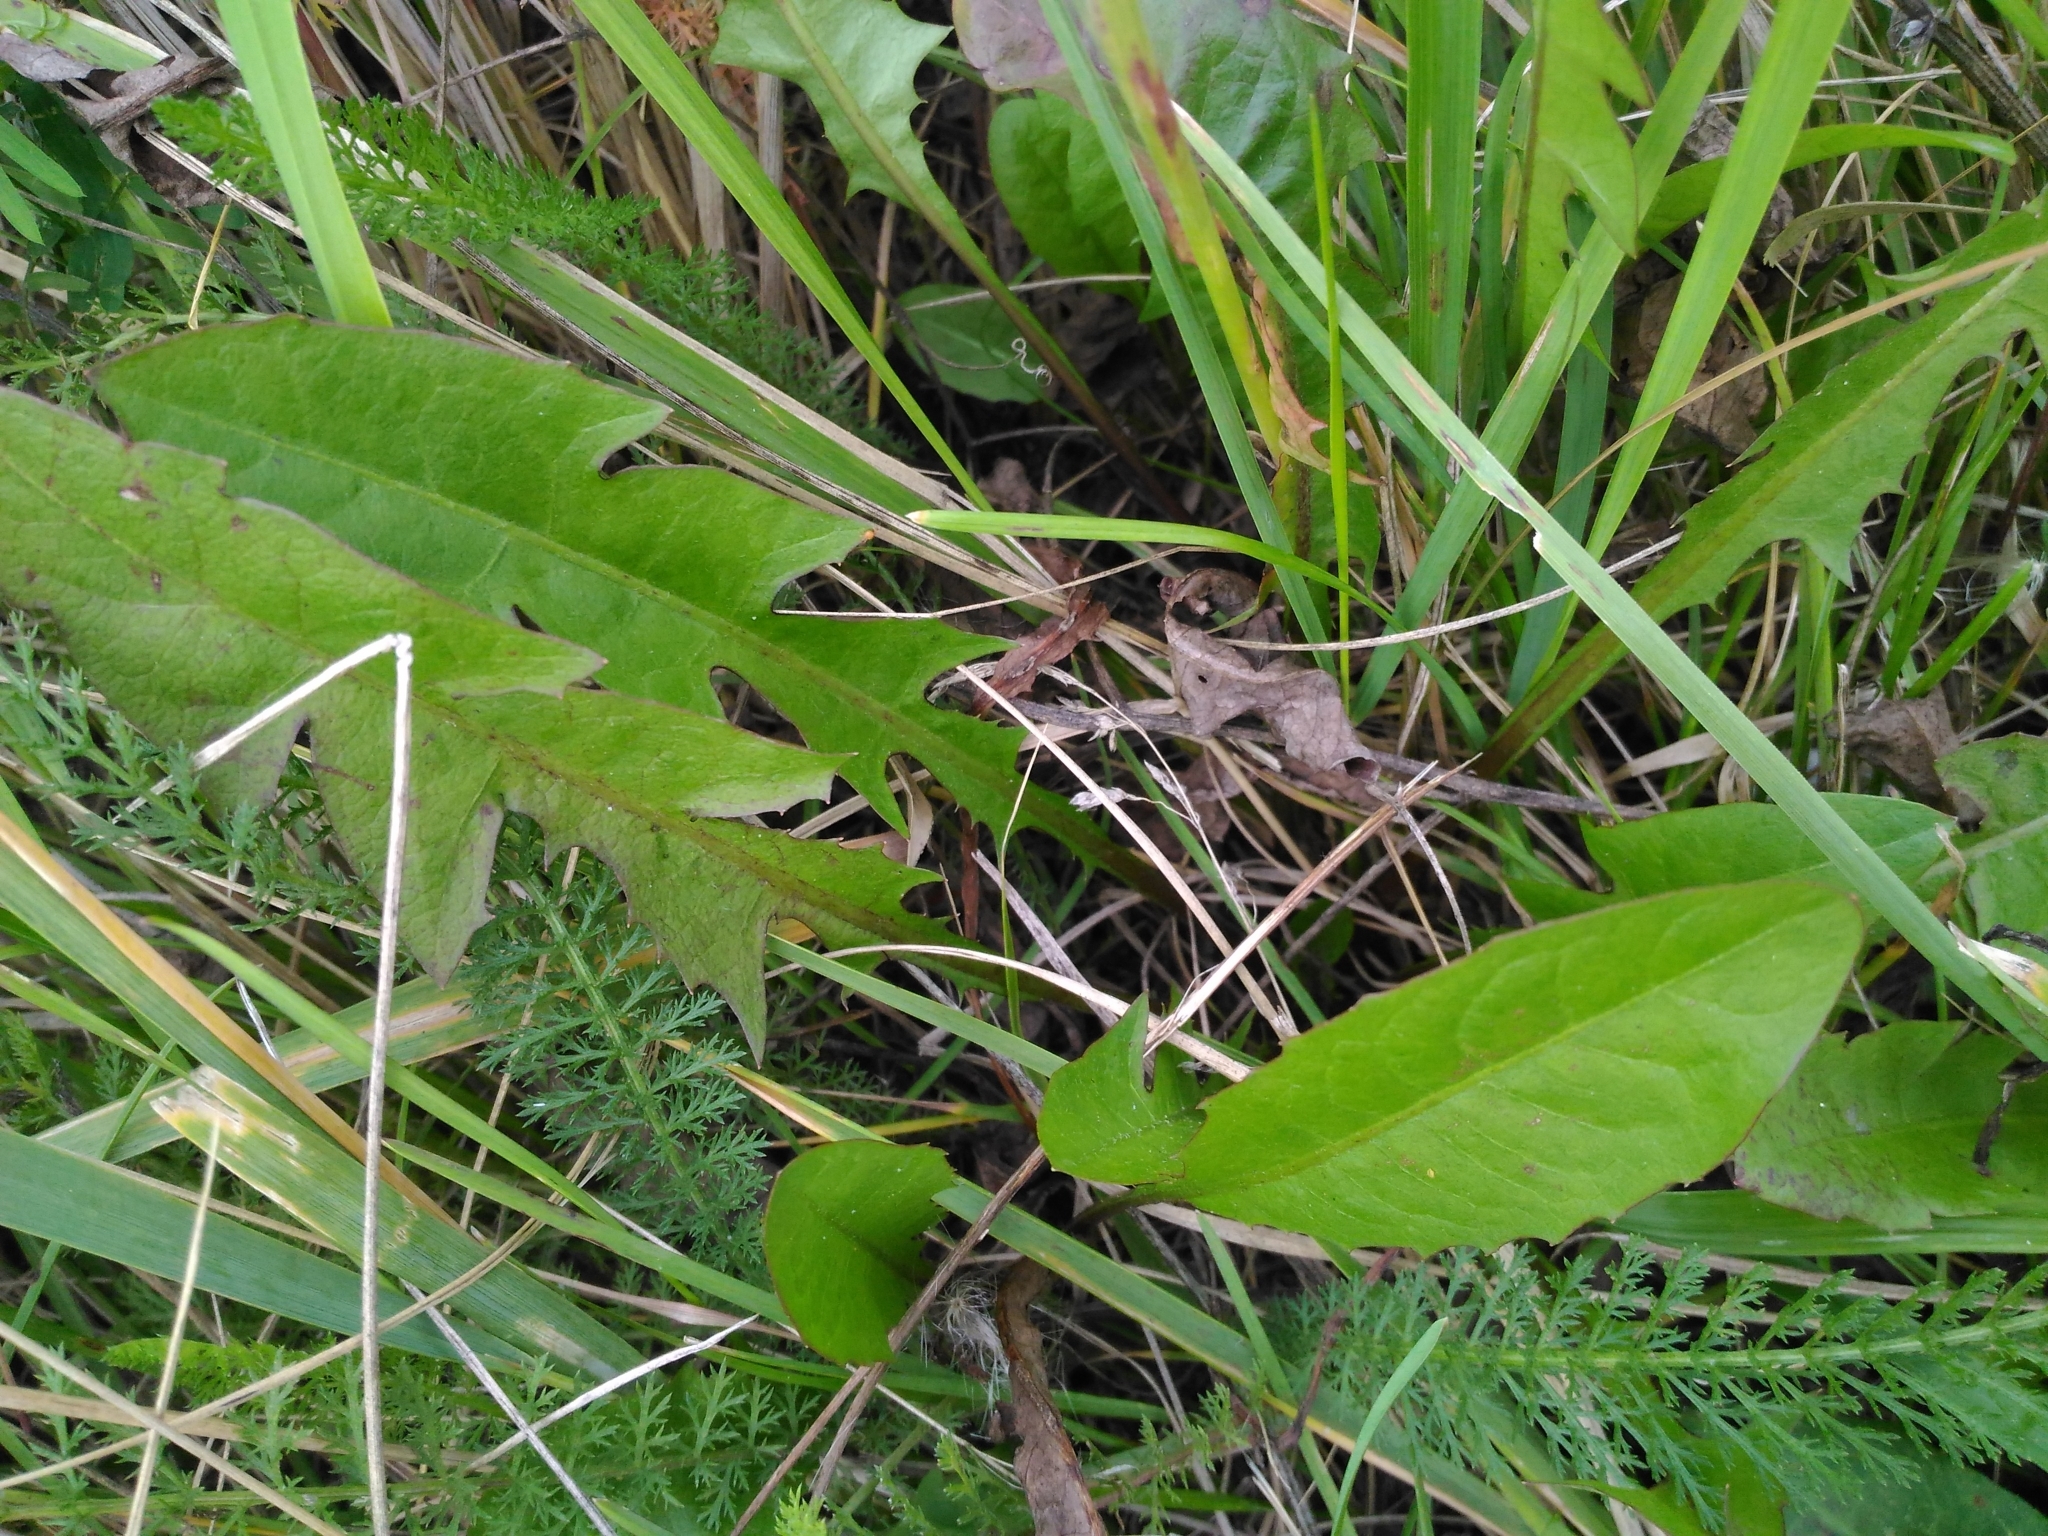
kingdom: Plantae
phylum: Tracheophyta
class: Magnoliopsida
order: Asterales
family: Asteraceae
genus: Taraxacum
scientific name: Taraxacum officinale
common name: Common dandelion
